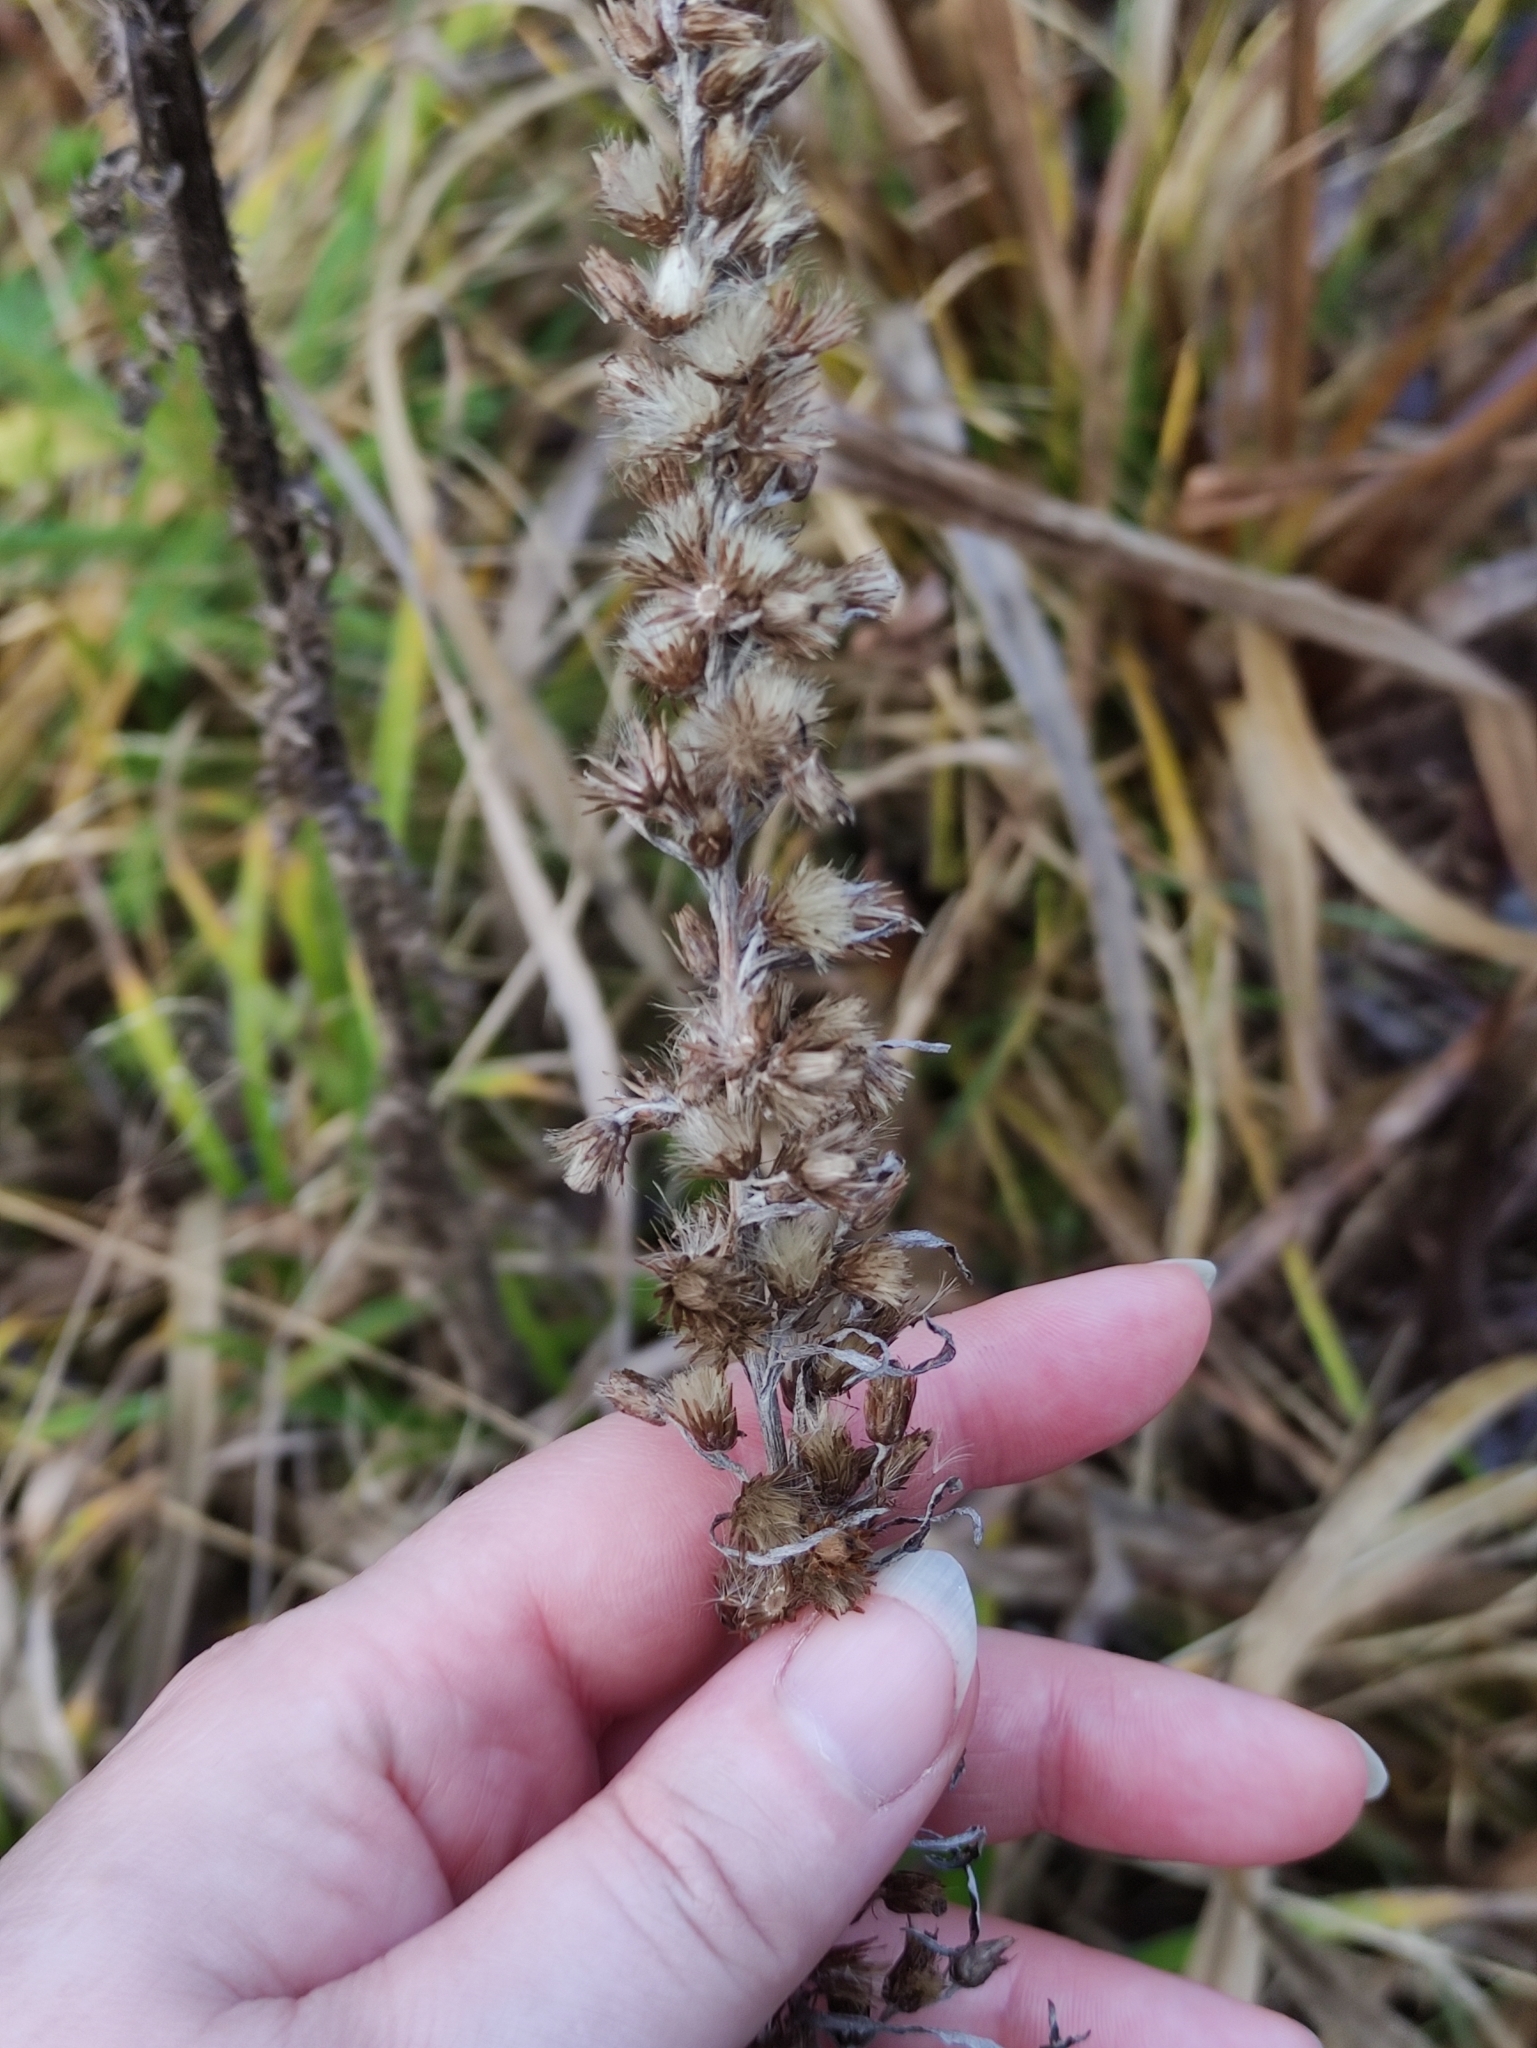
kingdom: Plantae
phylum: Tracheophyta
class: Magnoliopsida
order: Asterales
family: Asteraceae
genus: Omalotheca
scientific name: Omalotheca sylvatica
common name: Heath cudweed
